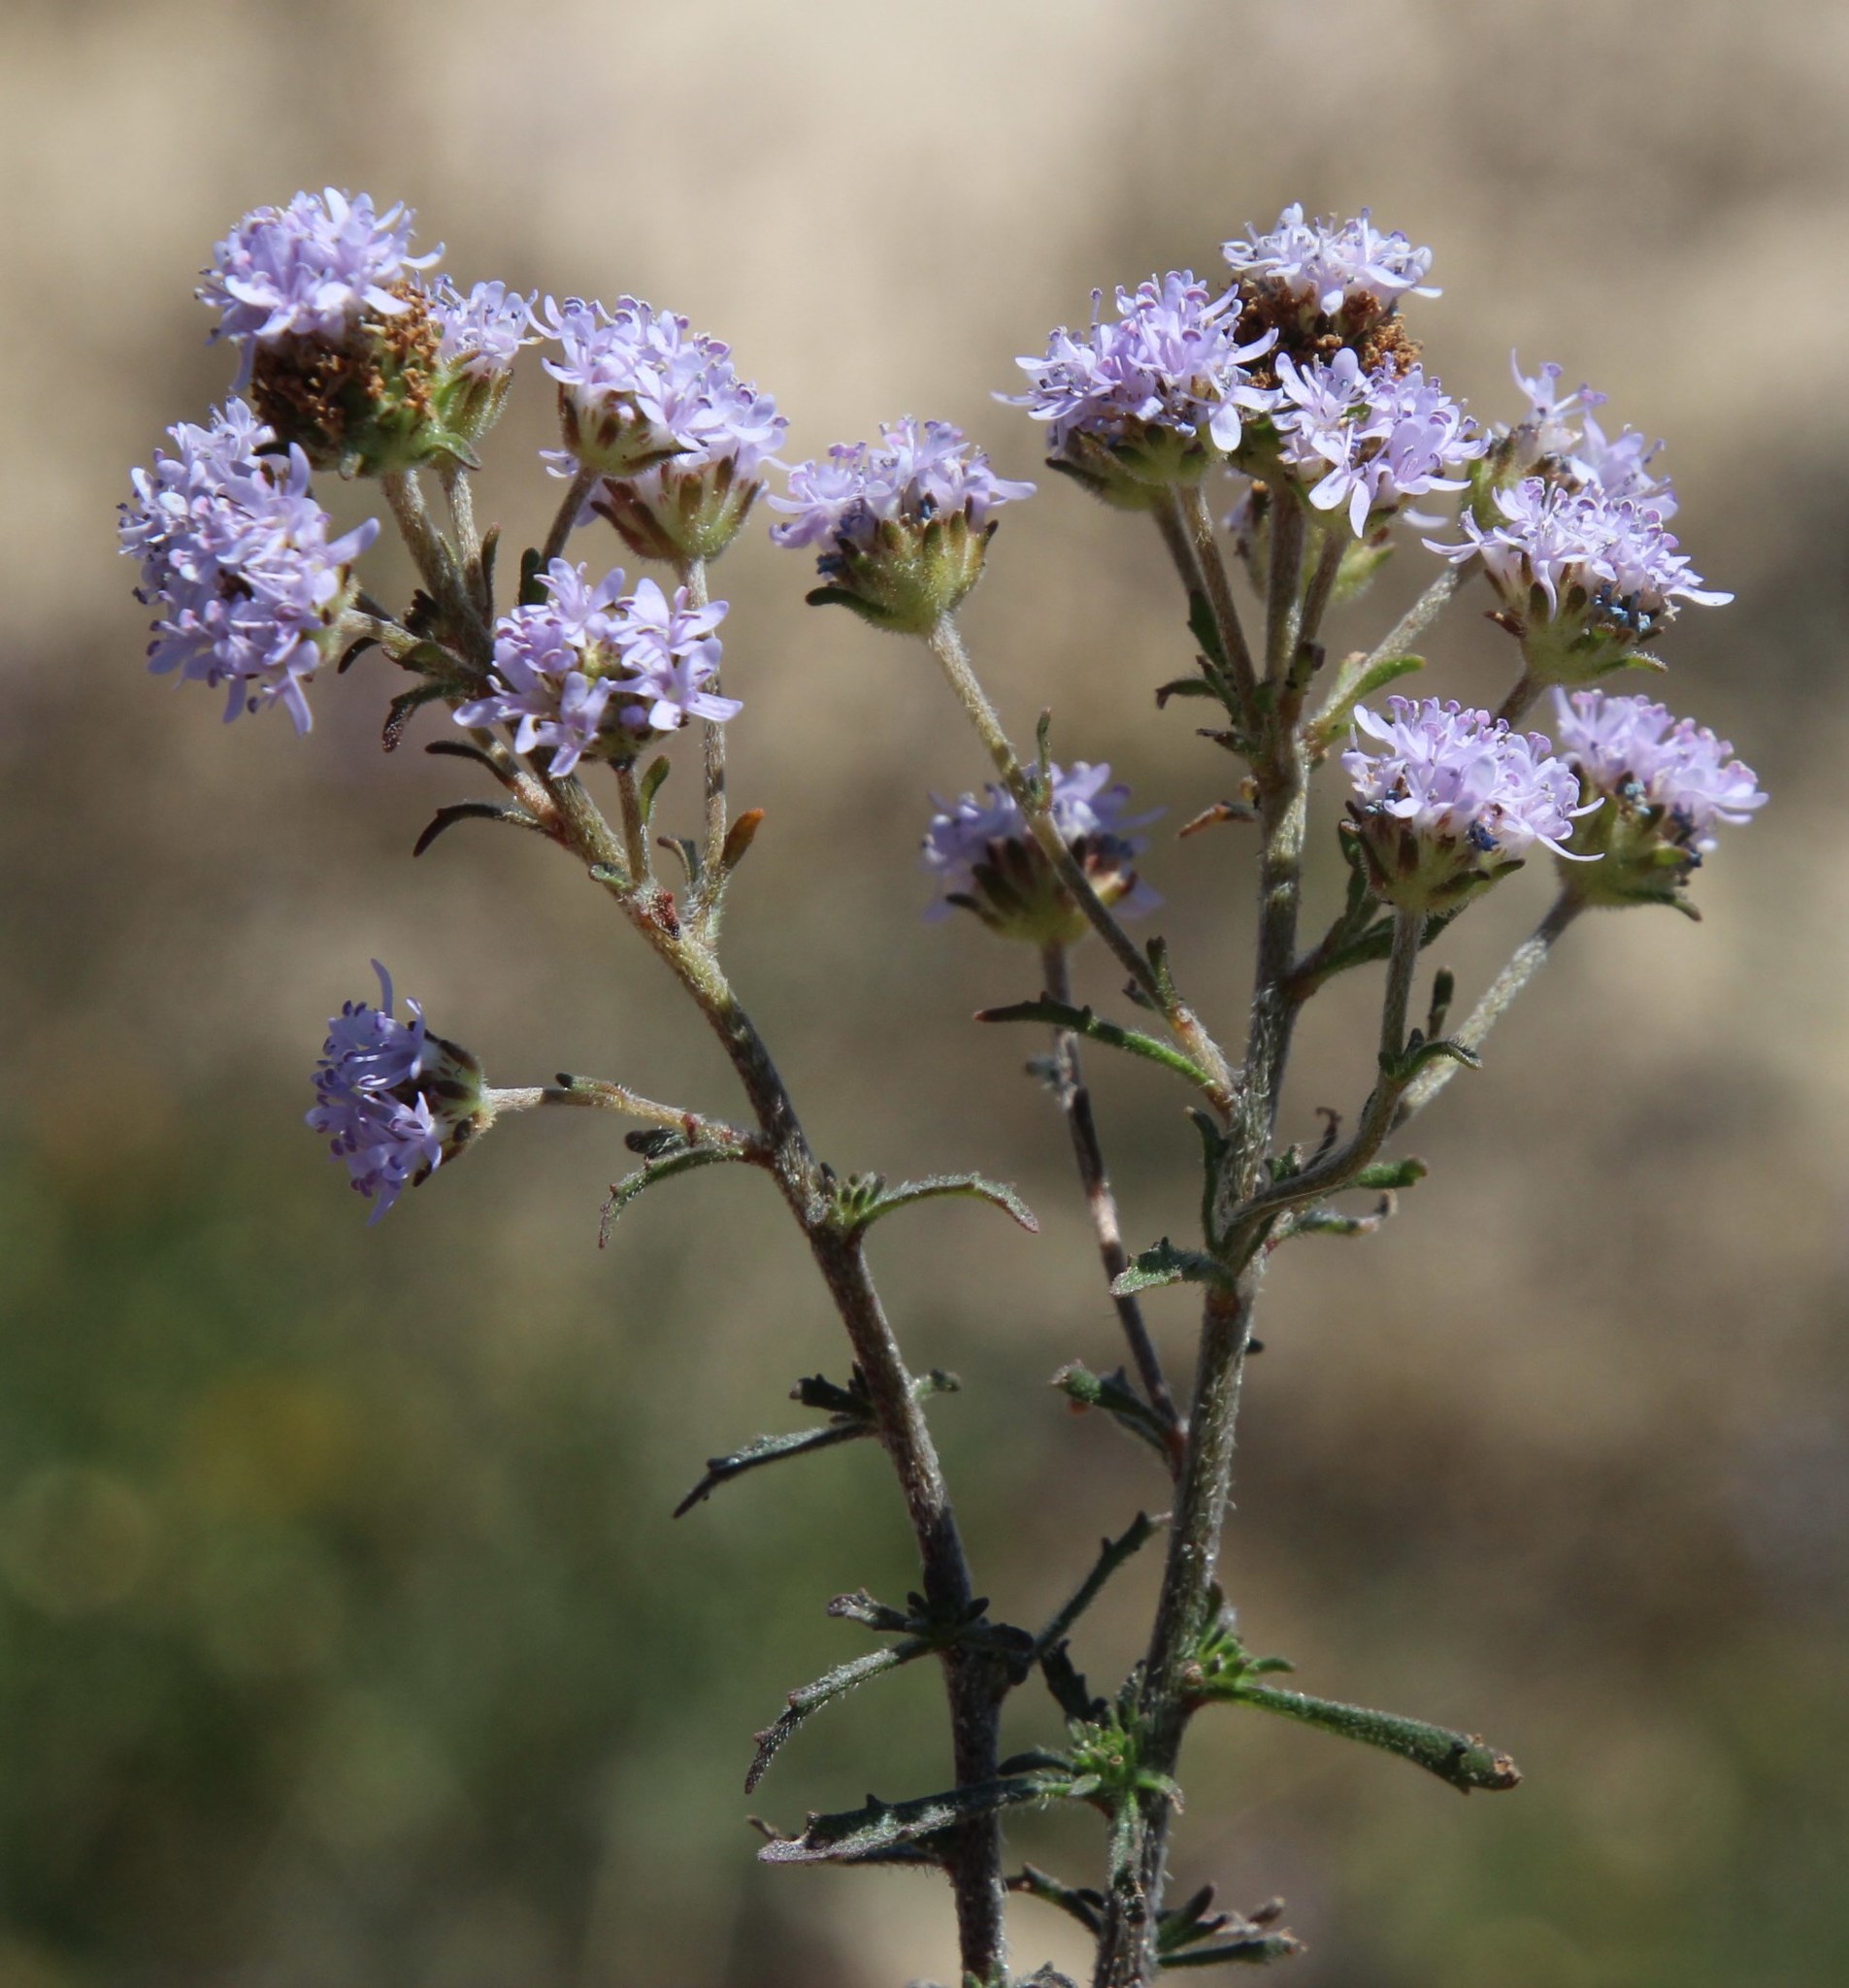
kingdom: Plantae
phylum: Tracheophyta
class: Magnoliopsida
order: Lamiales
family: Scrophulariaceae
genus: Phyllopodium
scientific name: Phyllopodium phyllopodioides
